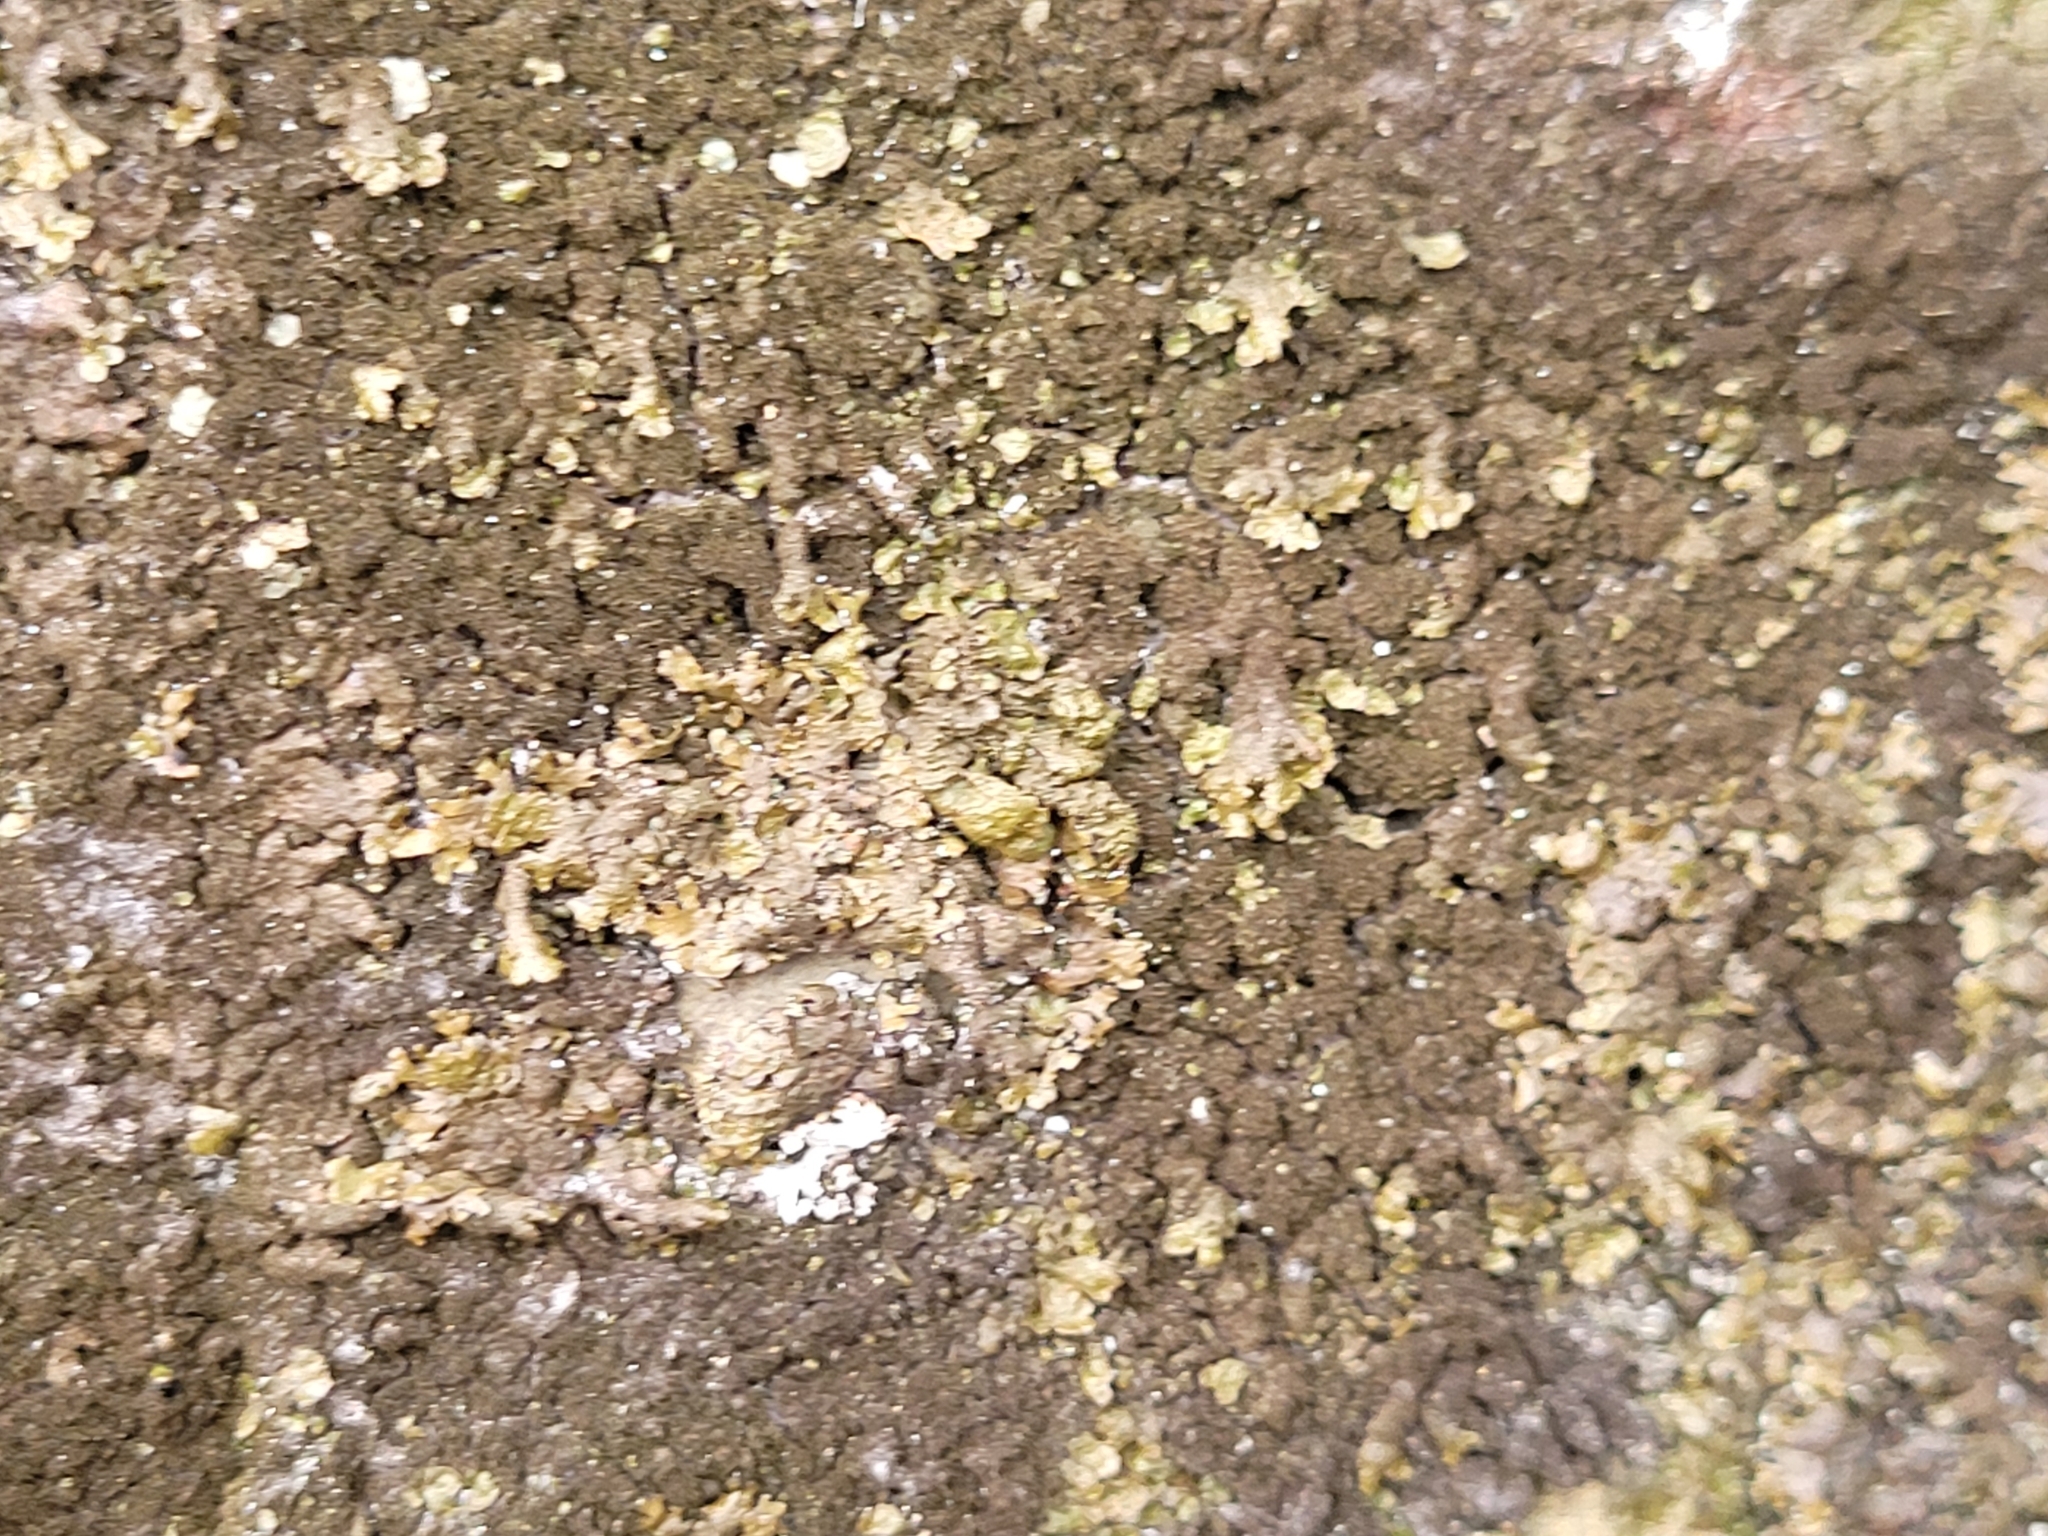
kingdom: Fungi
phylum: Ascomycota
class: Lecanoromycetes
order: Lecanorales
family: Parmeliaceae
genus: Melanelixia
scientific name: Melanelixia fuliginosa
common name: Shiny camouflage lichen
